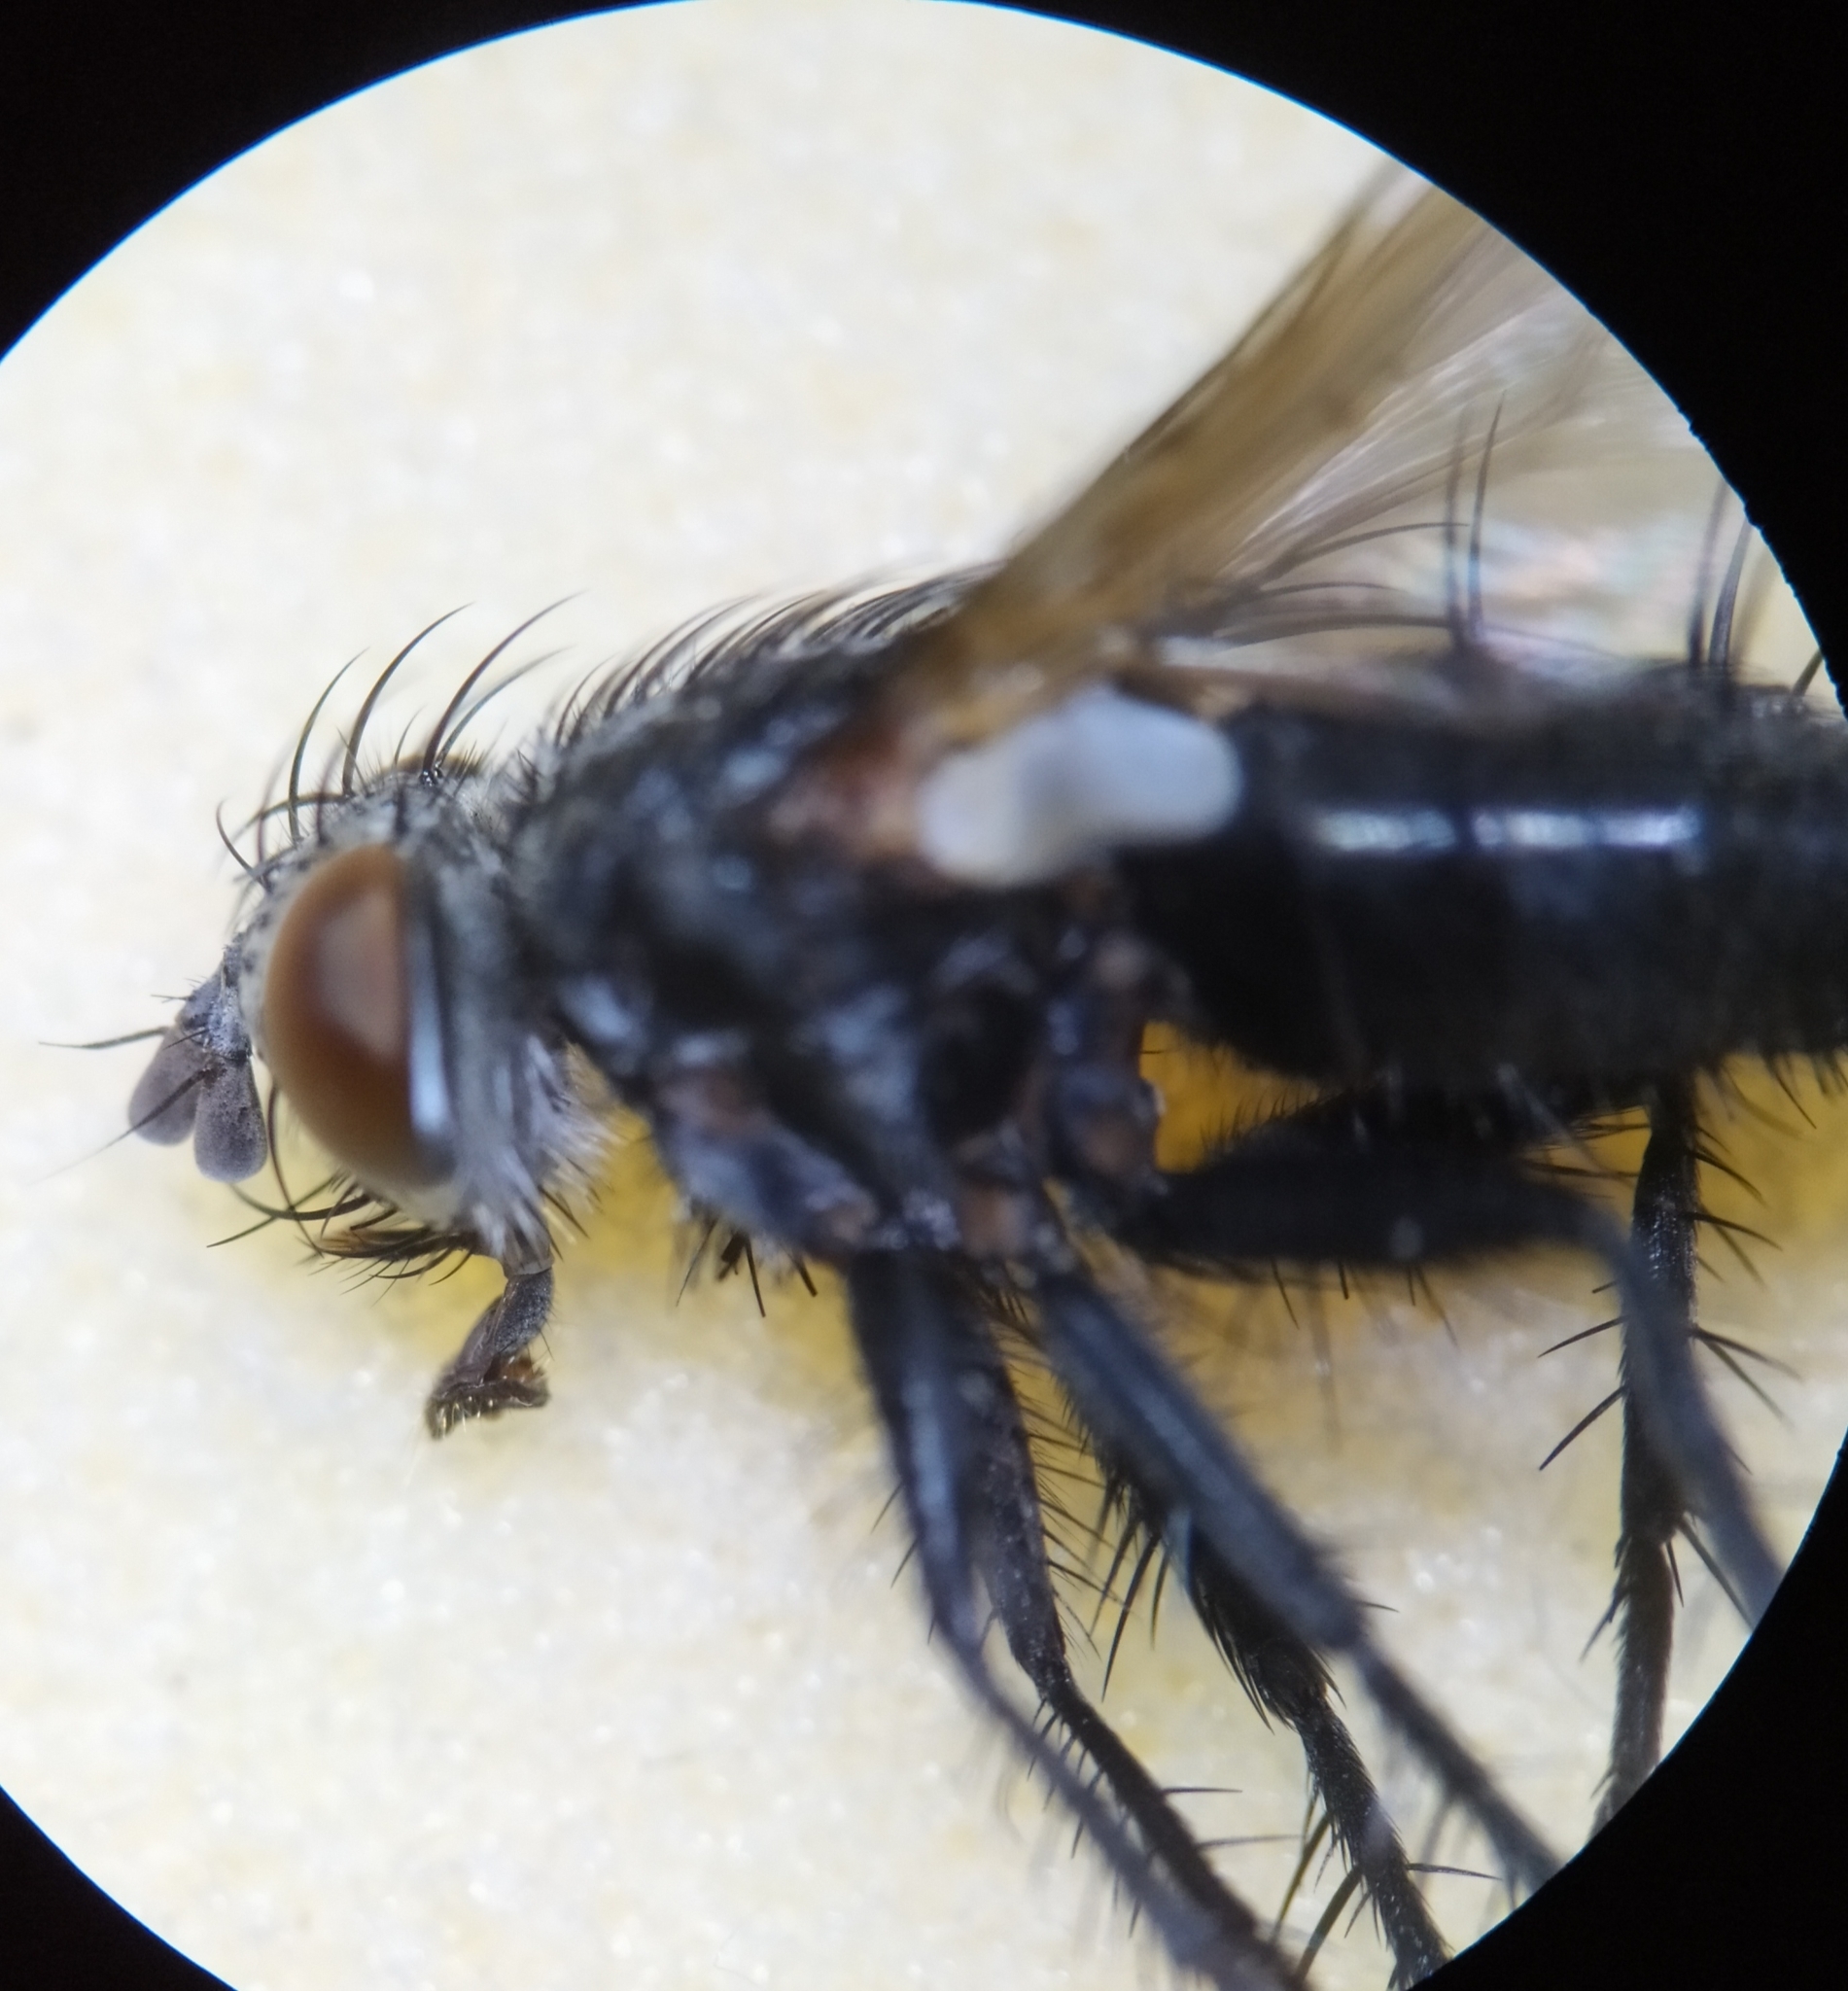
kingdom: Animalia
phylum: Arthropoda
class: Insecta
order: Diptera
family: Tachinidae
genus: Voria
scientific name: Voria ruralis
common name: Parasitic fly
